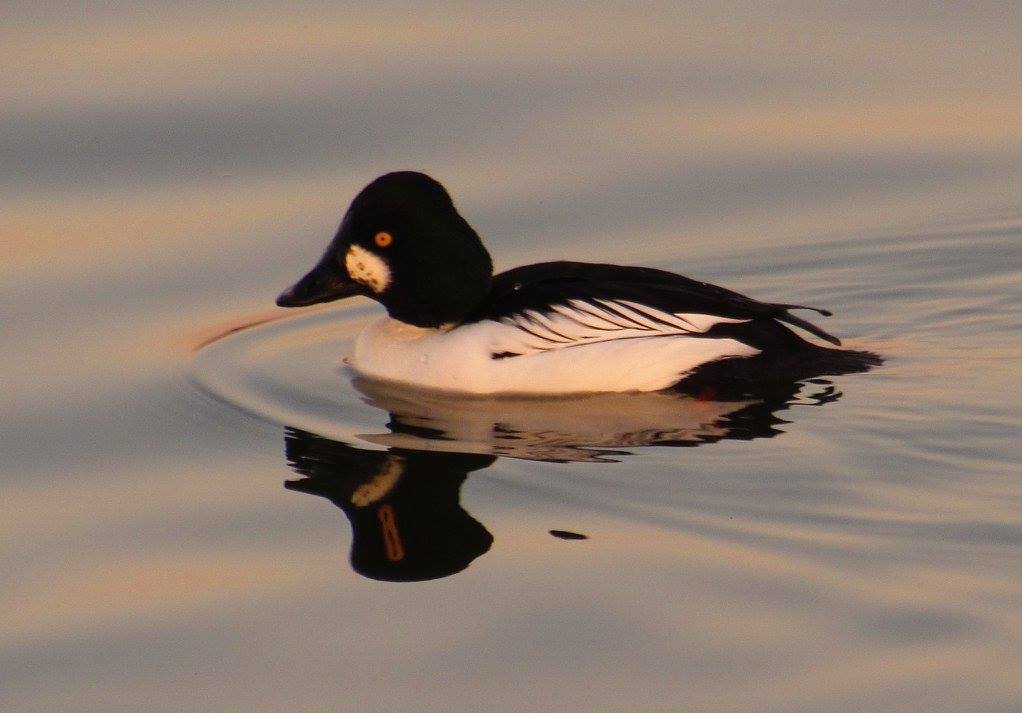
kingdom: Animalia
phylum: Chordata
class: Aves
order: Anseriformes
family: Anatidae
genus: Bucephala
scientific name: Bucephala clangula
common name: Common goldeneye
